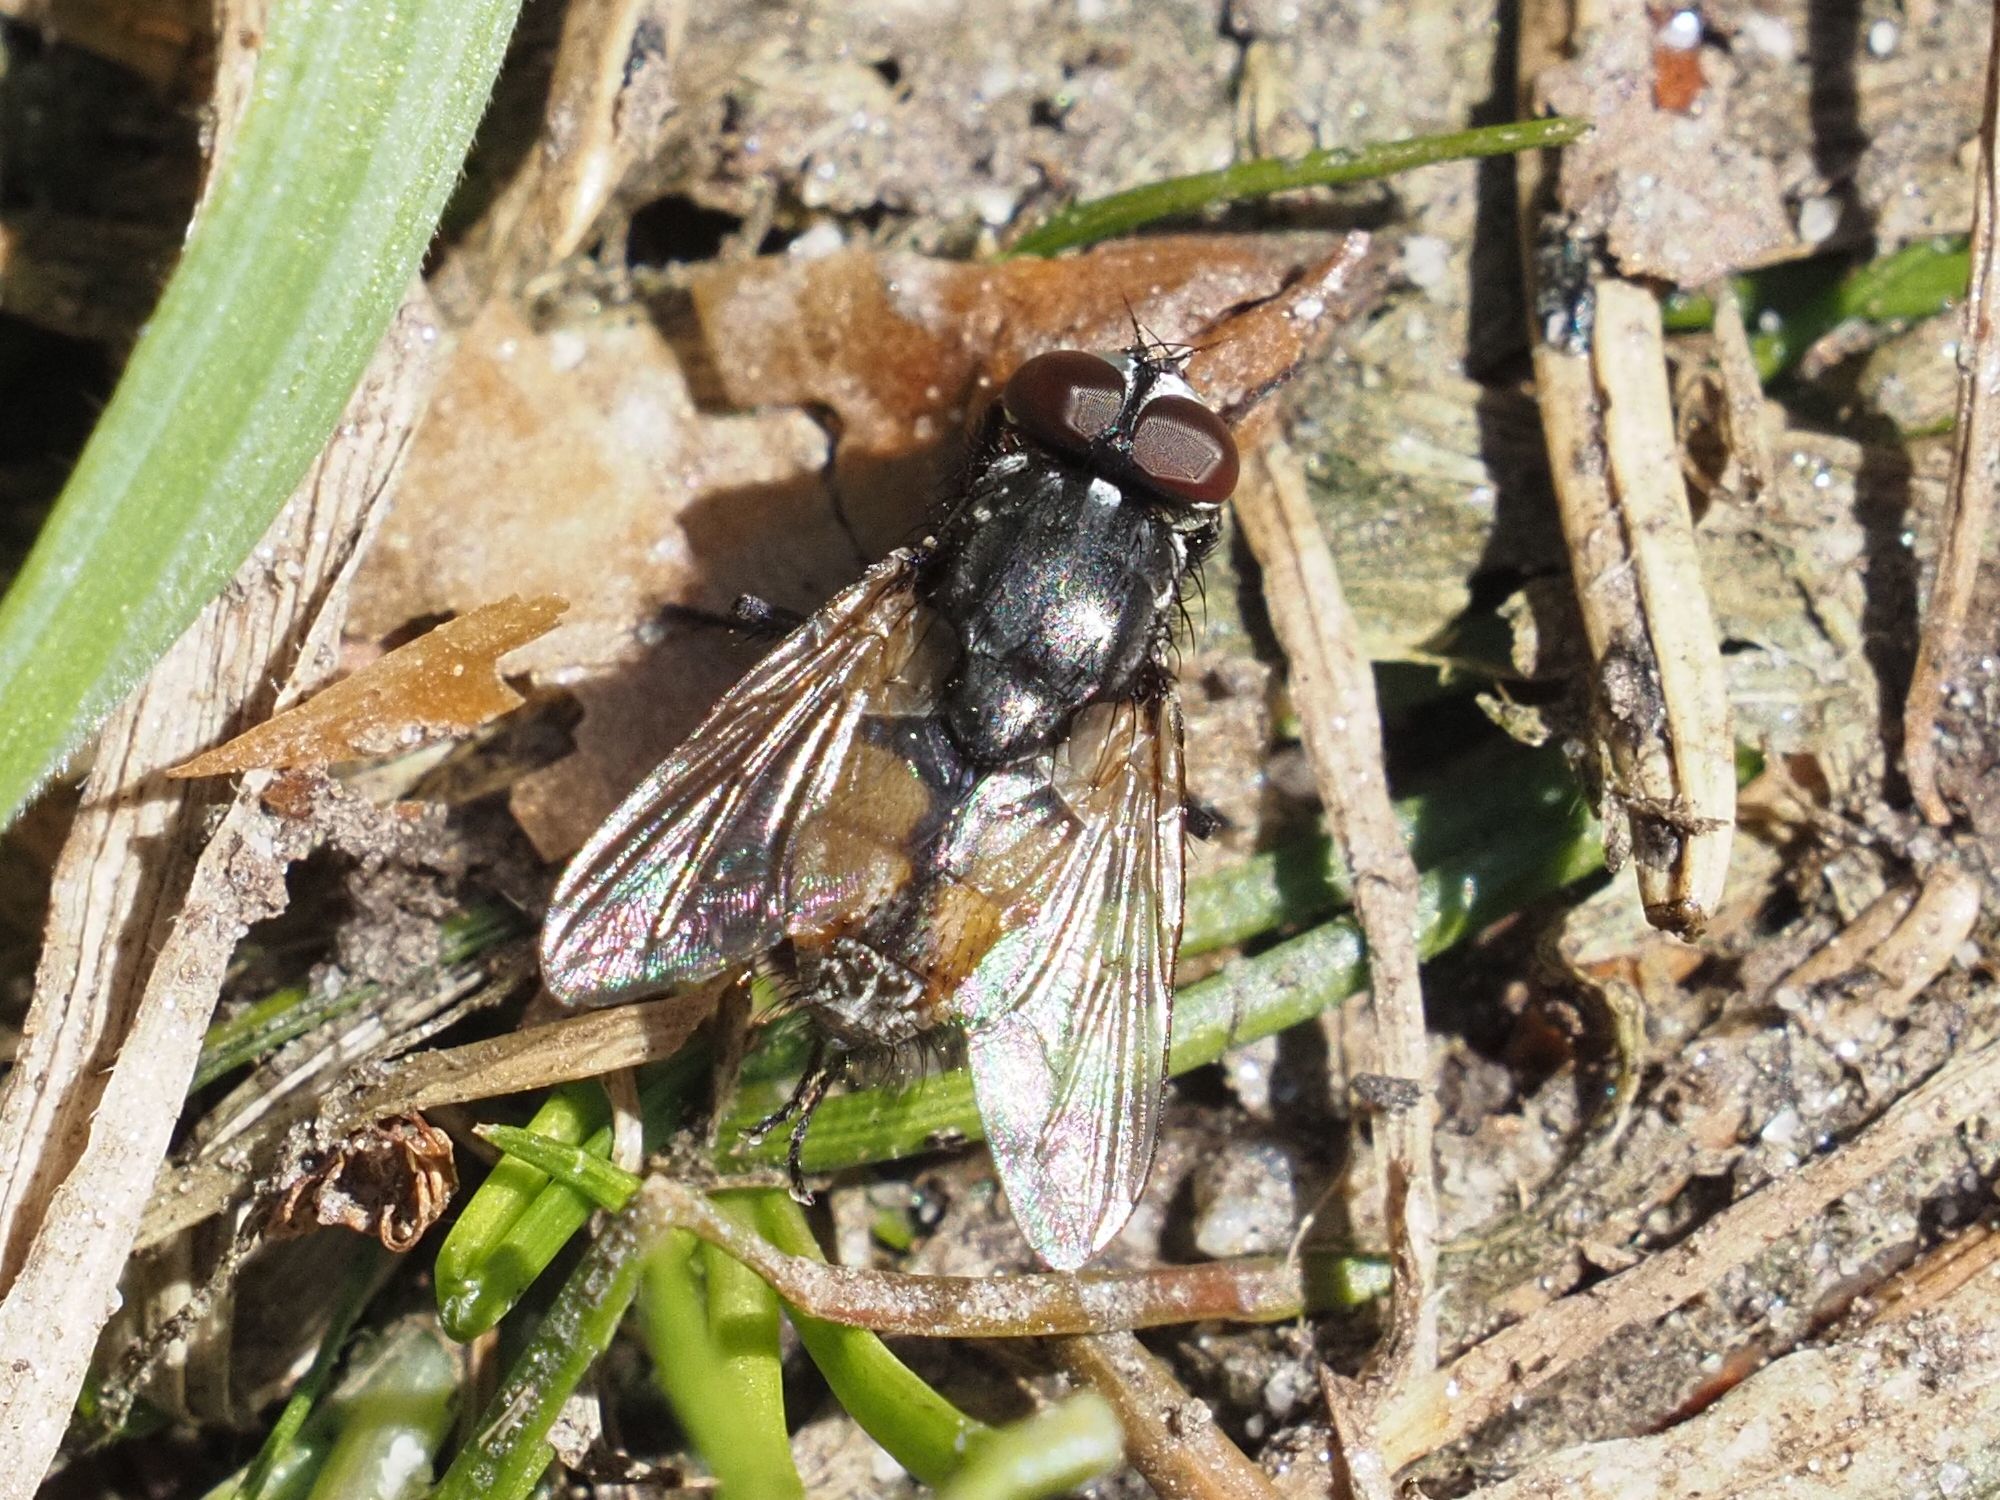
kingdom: Animalia
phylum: Arthropoda
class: Insecta
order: Diptera
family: Muscidae
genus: Musca
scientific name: Musca autumnalis
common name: Face fly
